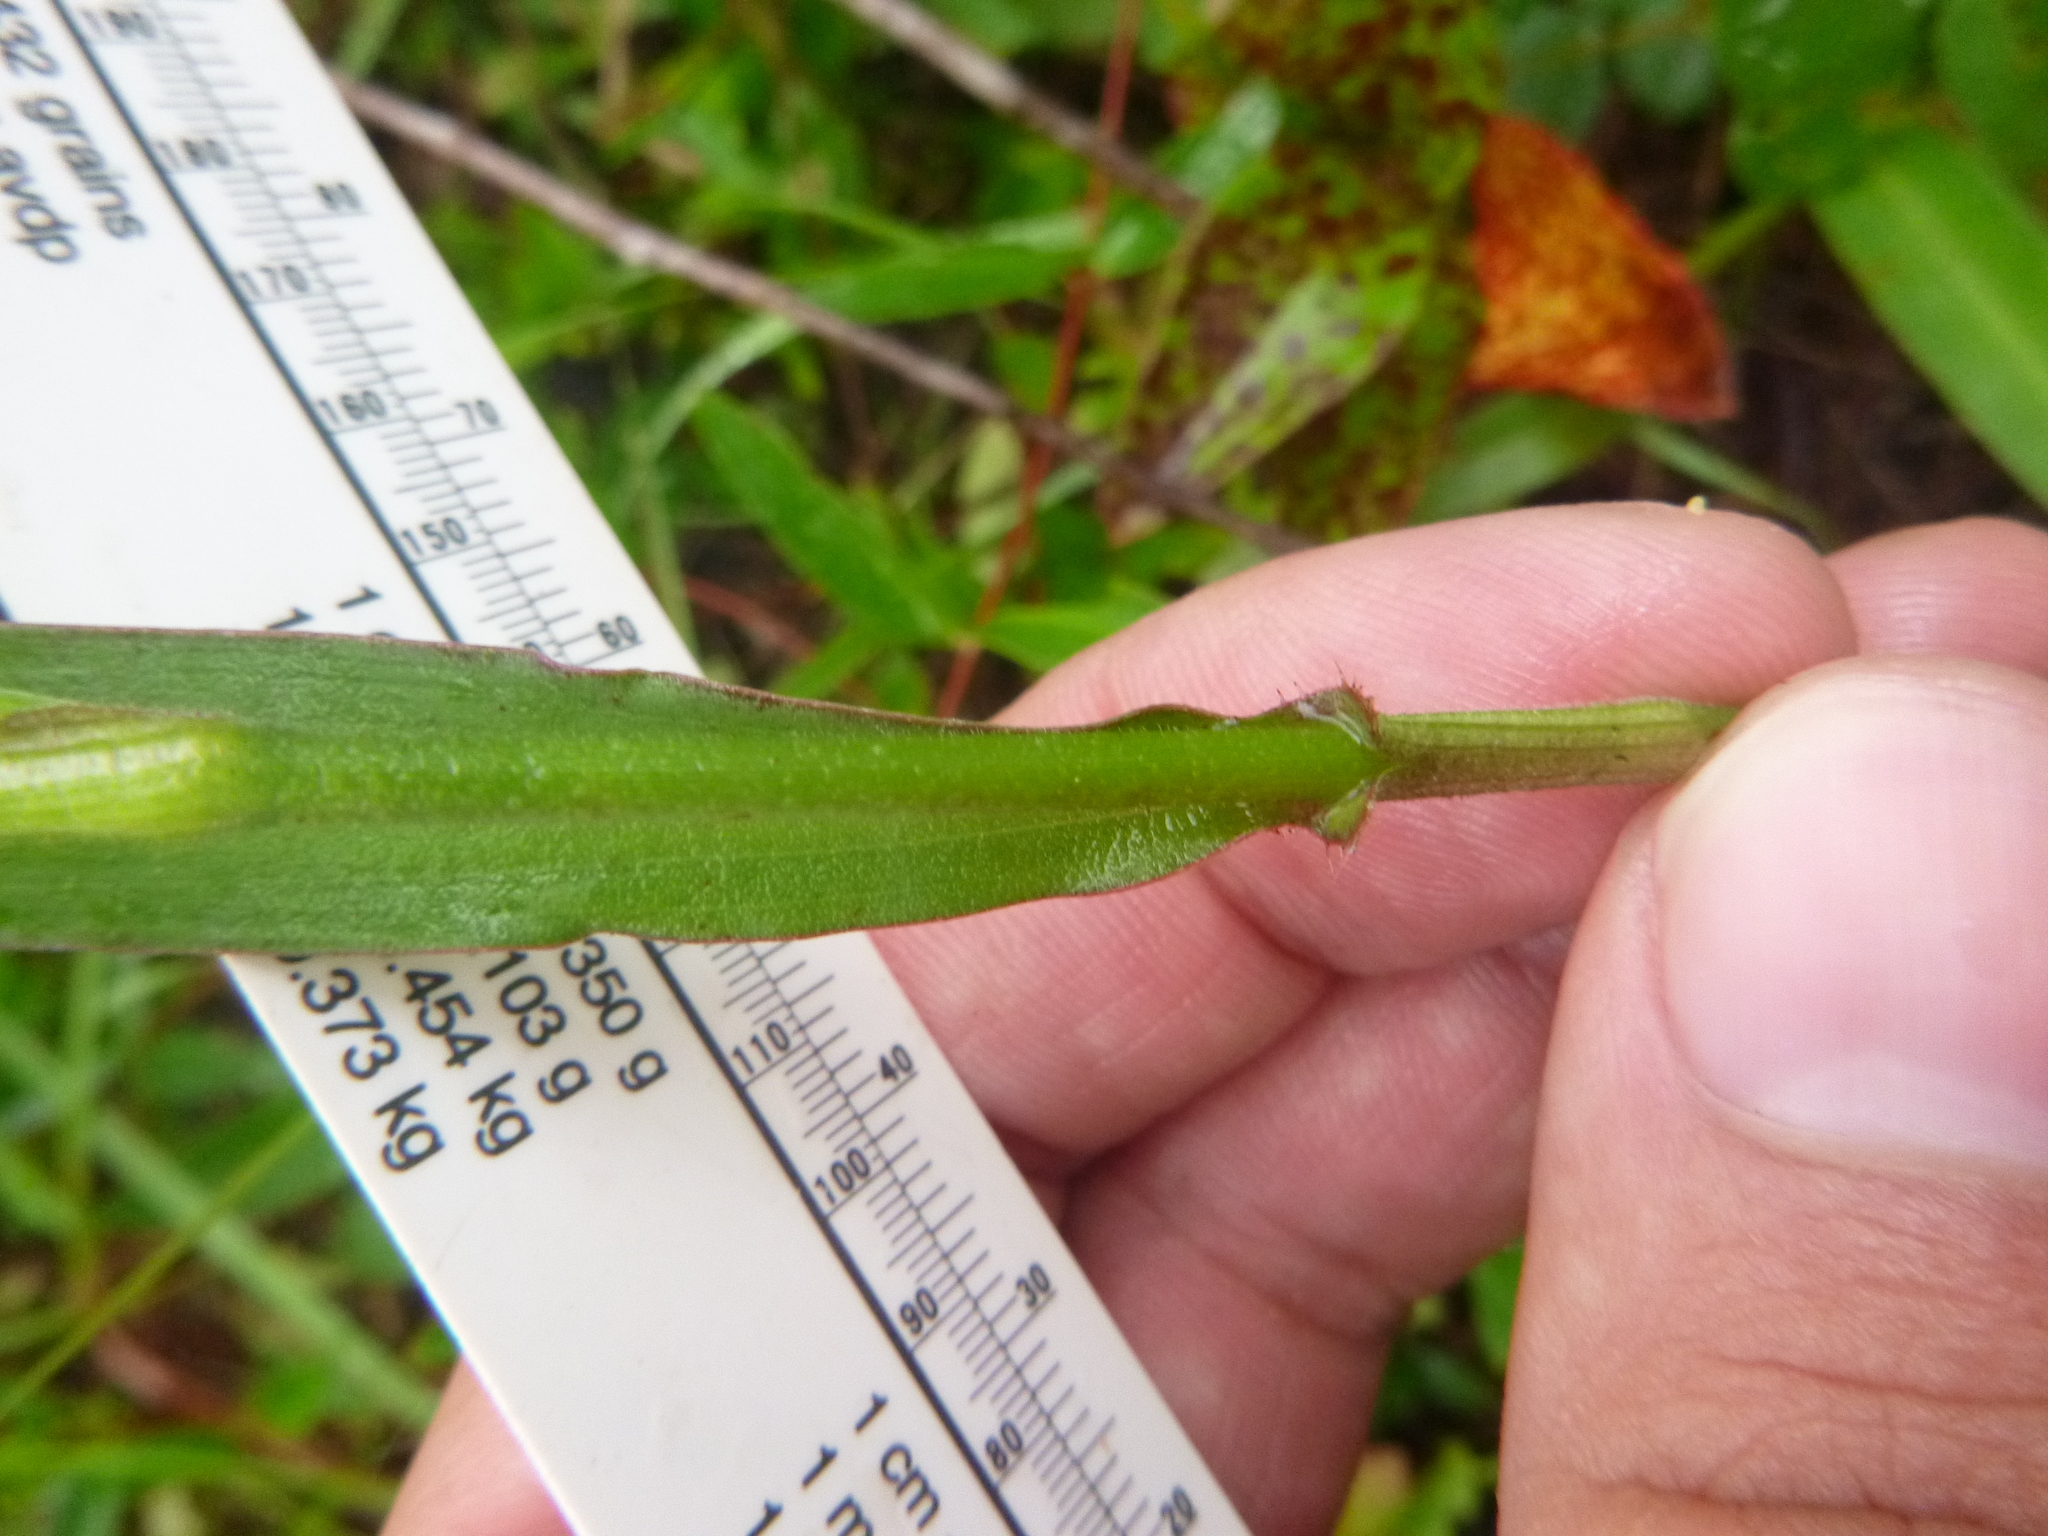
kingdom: Plantae
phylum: Tracheophyta
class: Liliopsida
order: Commelinales
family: Commelinaceae
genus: Commelina
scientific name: Commelina erecta
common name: Blousel blommetjie
